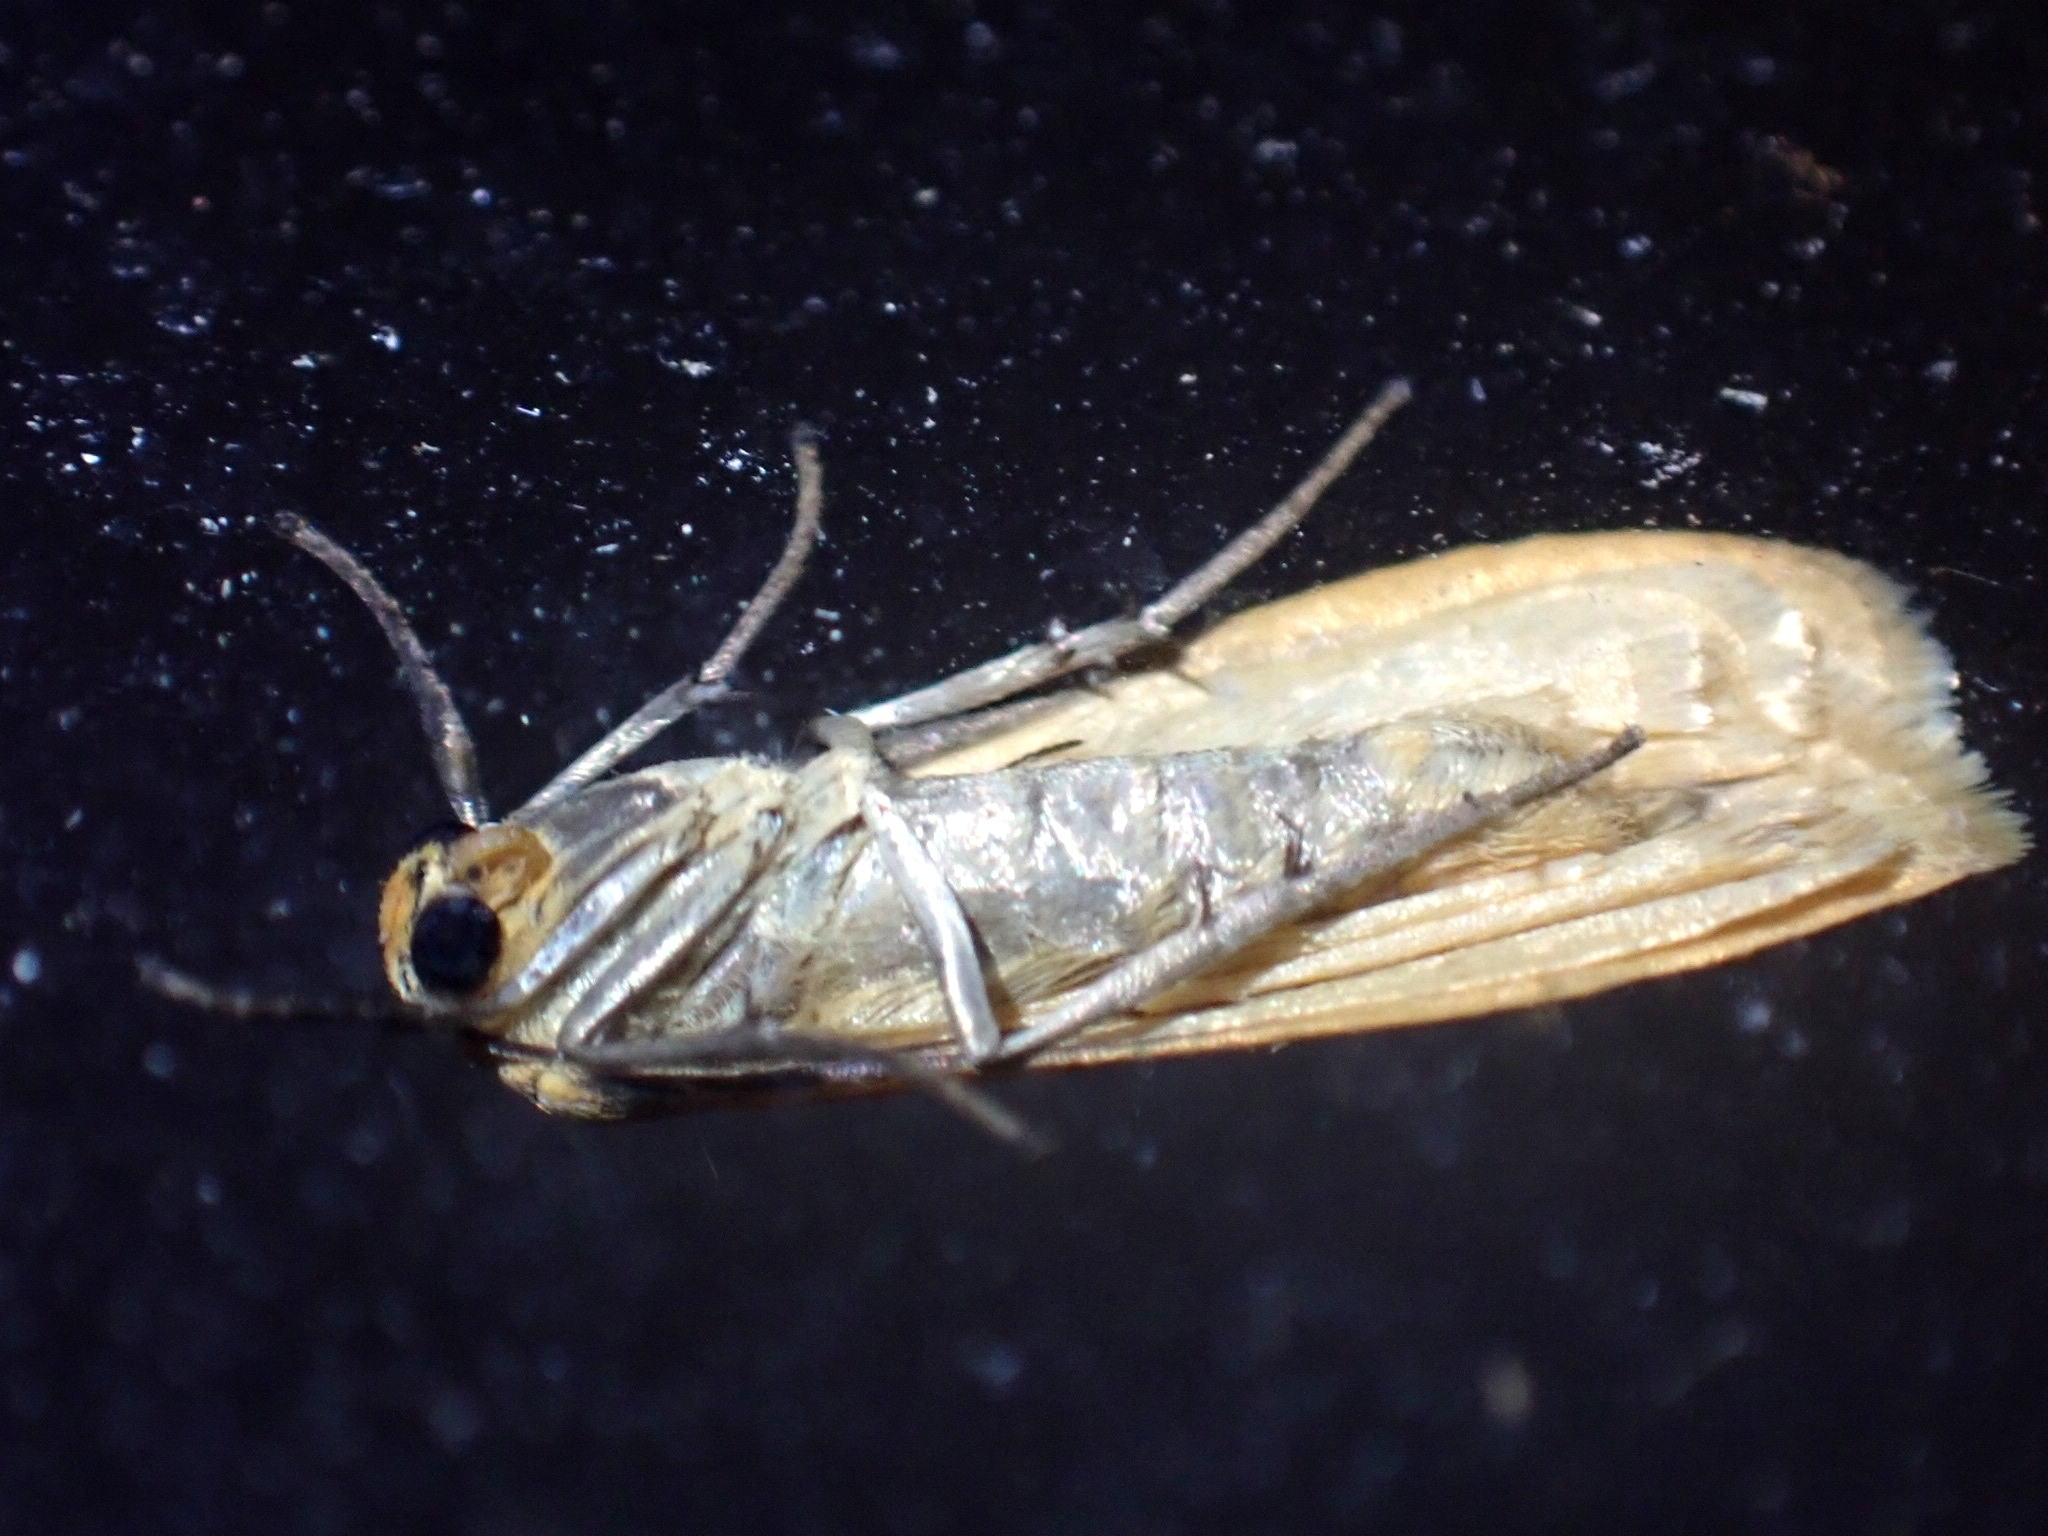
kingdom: Animalia
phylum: Arthropoda
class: Insecta
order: Lepidoptera
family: Erebidae
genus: Wittia
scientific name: Wittia sororcula
